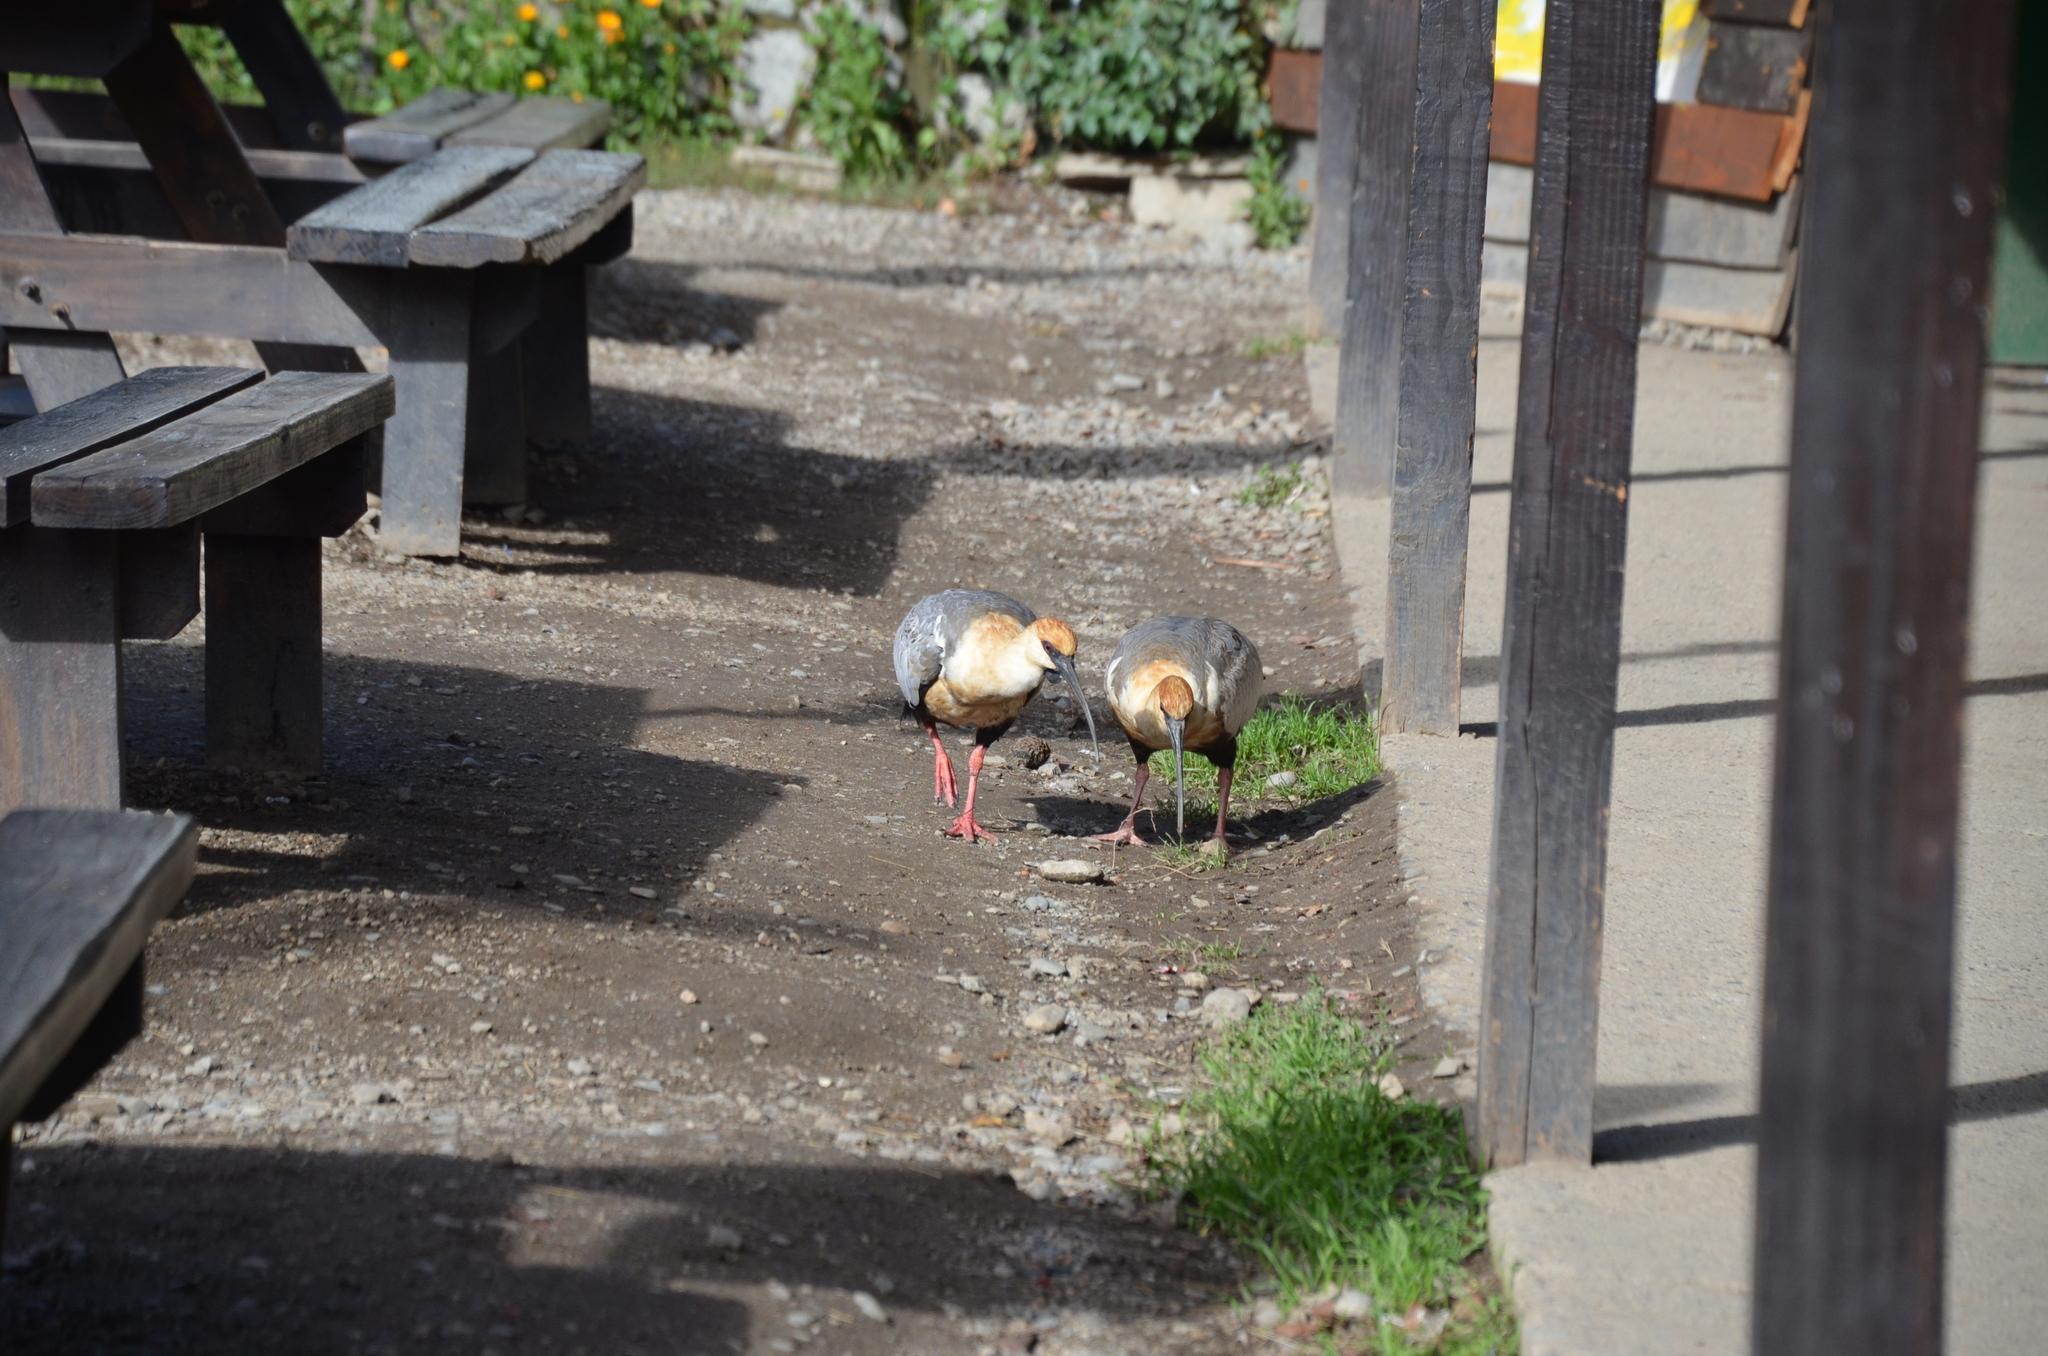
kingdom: Animalia
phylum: Chordata
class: Aves
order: Pelecaniformes
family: Threskiornithidae
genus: Theristicus
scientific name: Theristicus melanopis
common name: Black-faced ibis
